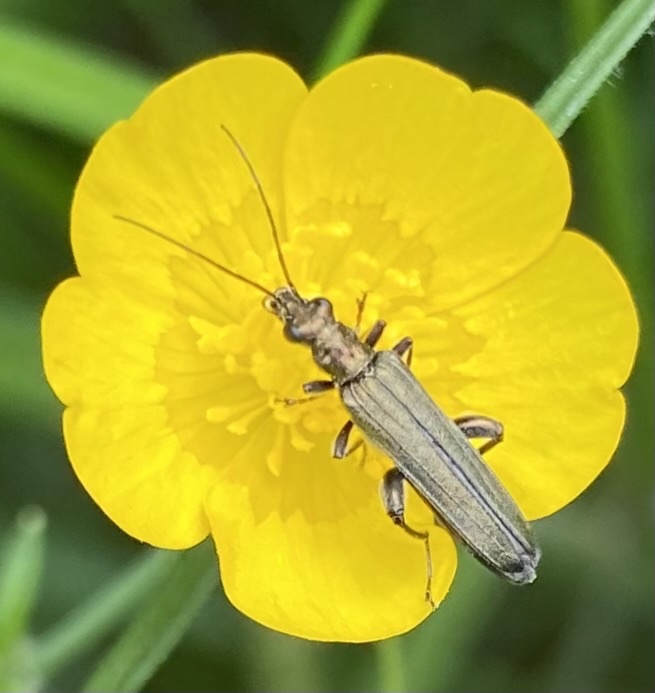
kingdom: Animalia
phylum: Arthropoda
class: Insecta
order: Coleoptera
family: Oedemeridae
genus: Oedemera
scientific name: Oedemera virescens
